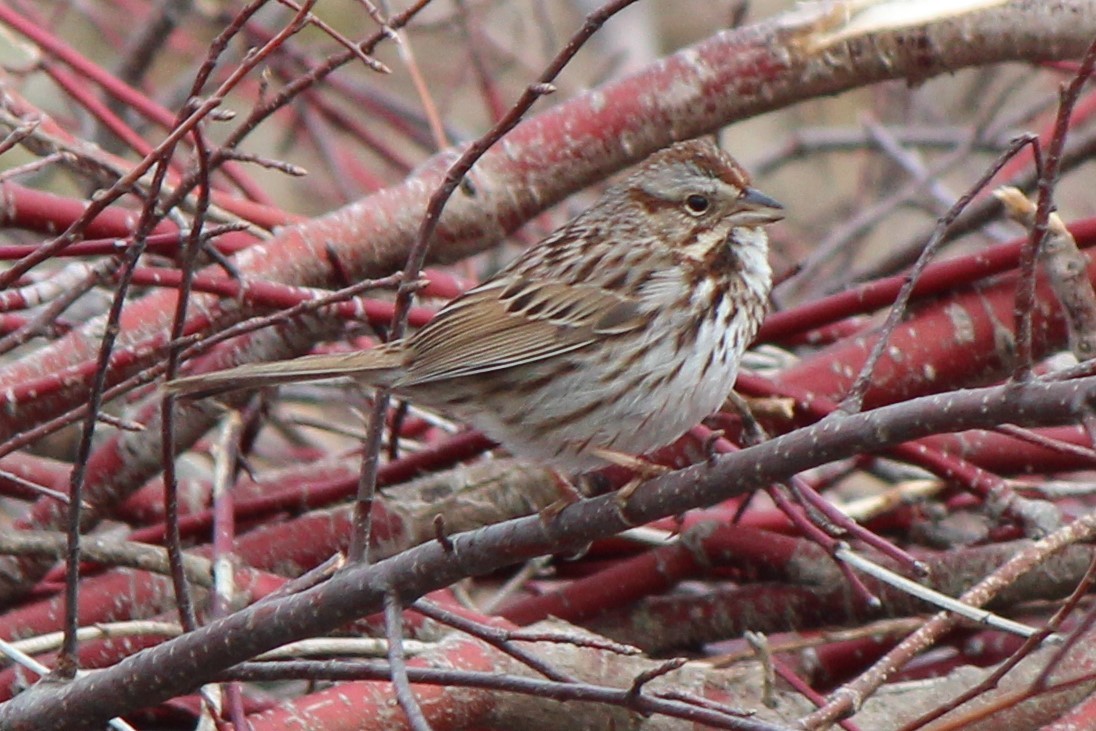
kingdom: Animalia
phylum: Chordata
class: Aves
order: Passeriformes
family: Passerellidae
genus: Melospiza
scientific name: Melospiza melodia
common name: Song sparrow
